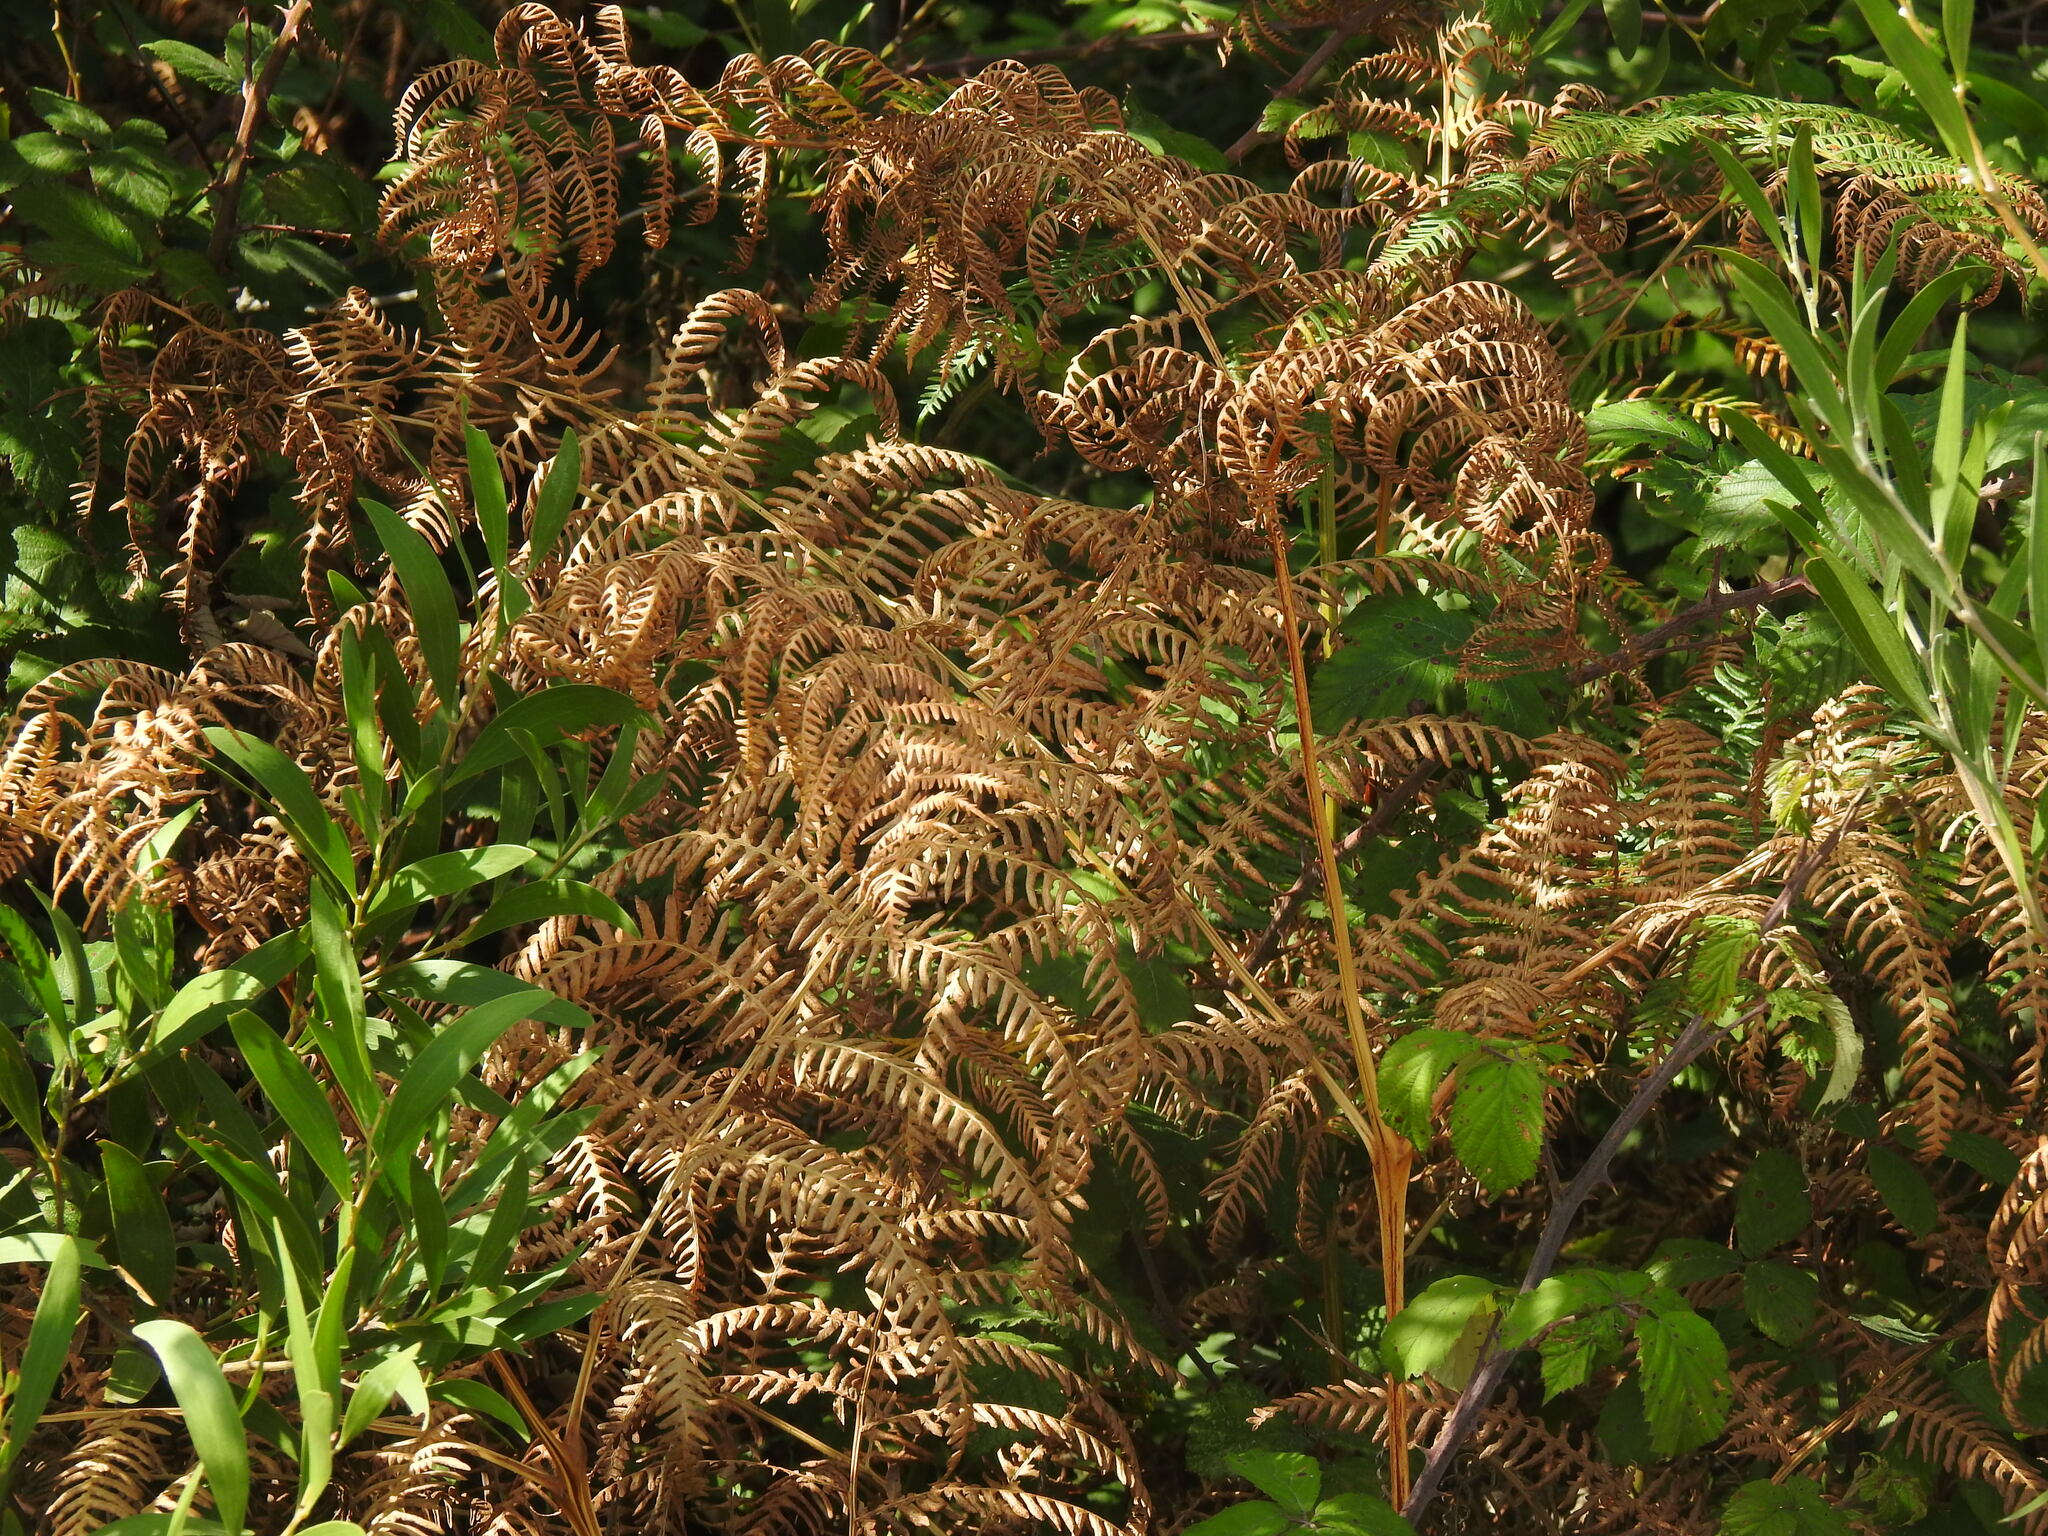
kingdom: Plantae
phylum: Tracheophyta
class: Polypodiopsida
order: Polypodiales
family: Dennstaedtiaceae
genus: Pteridium
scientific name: Pteridium aquilinum
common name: Bracken
